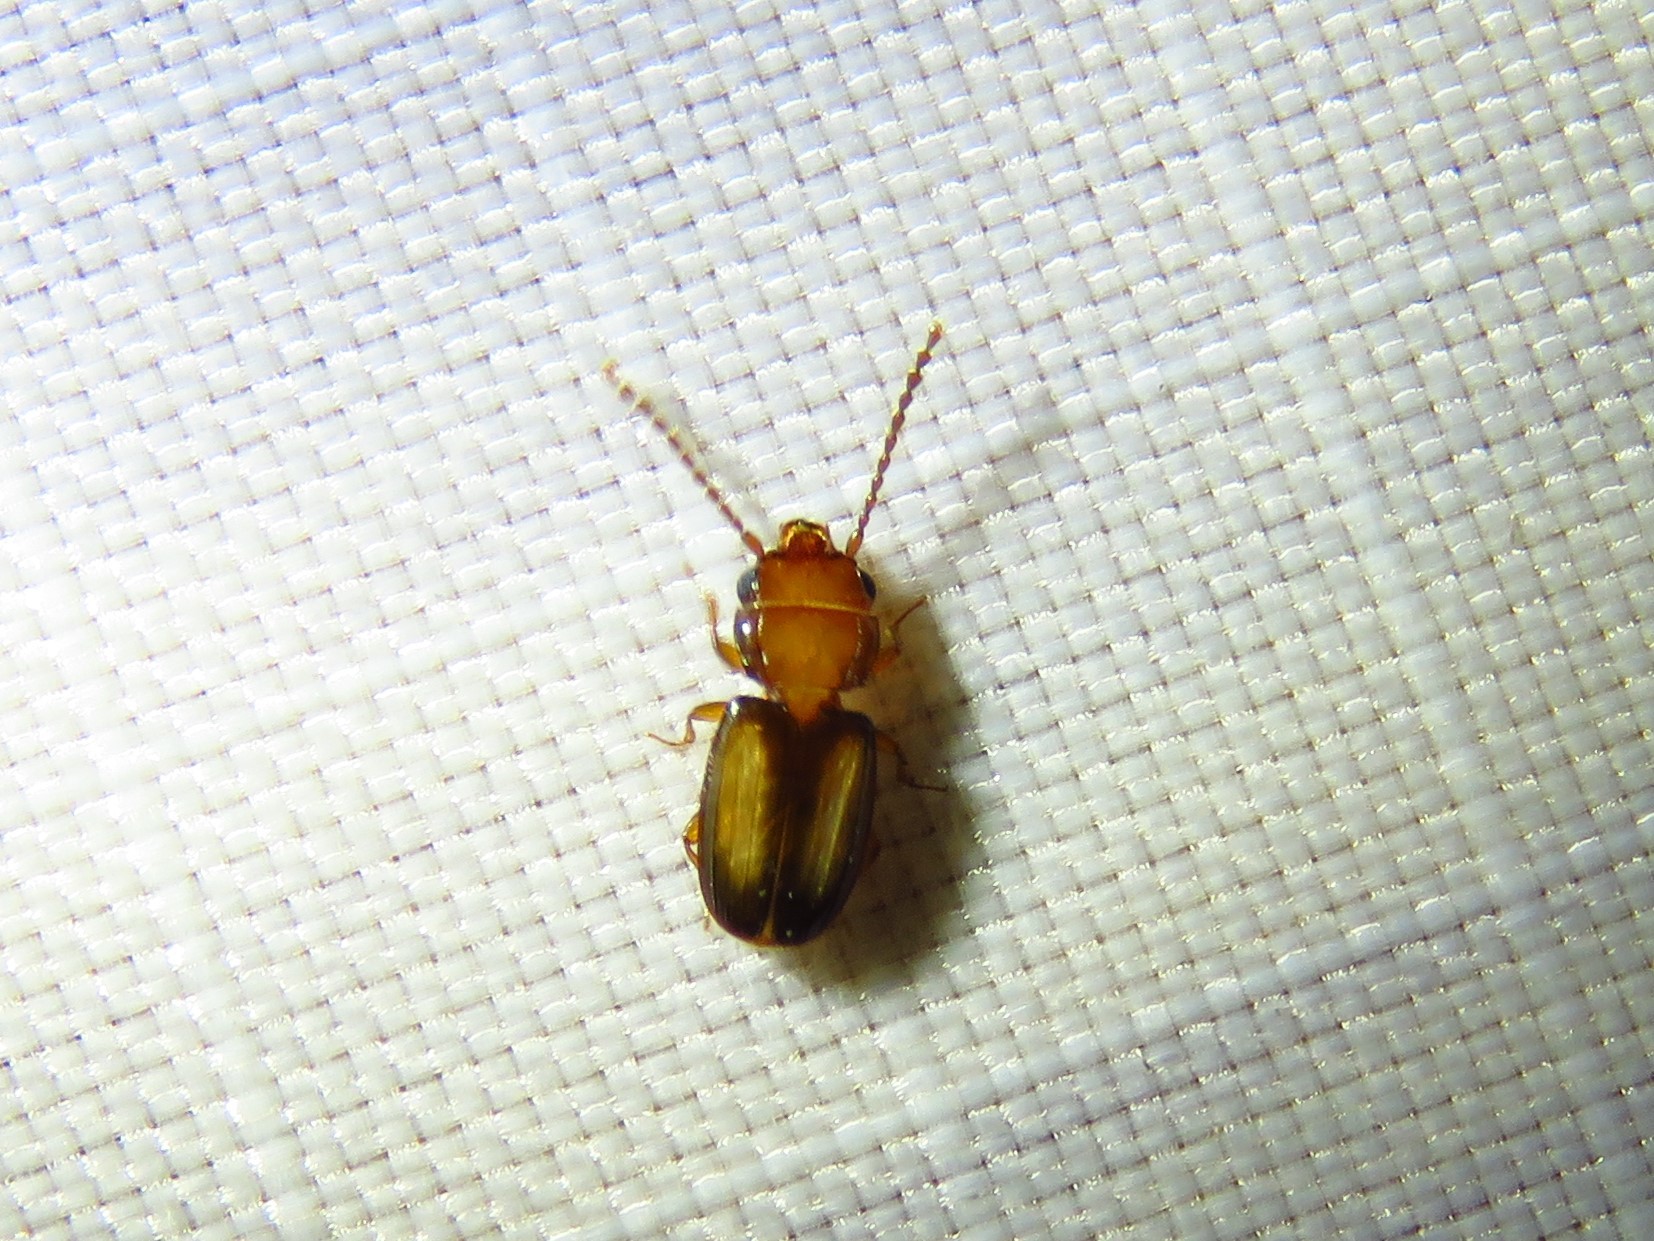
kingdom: Animalia
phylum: Arthropoda
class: Insecta
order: Coleoptera
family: Laemophloeidae
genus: Laemophloeus
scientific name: Laemophloeus terminalis
